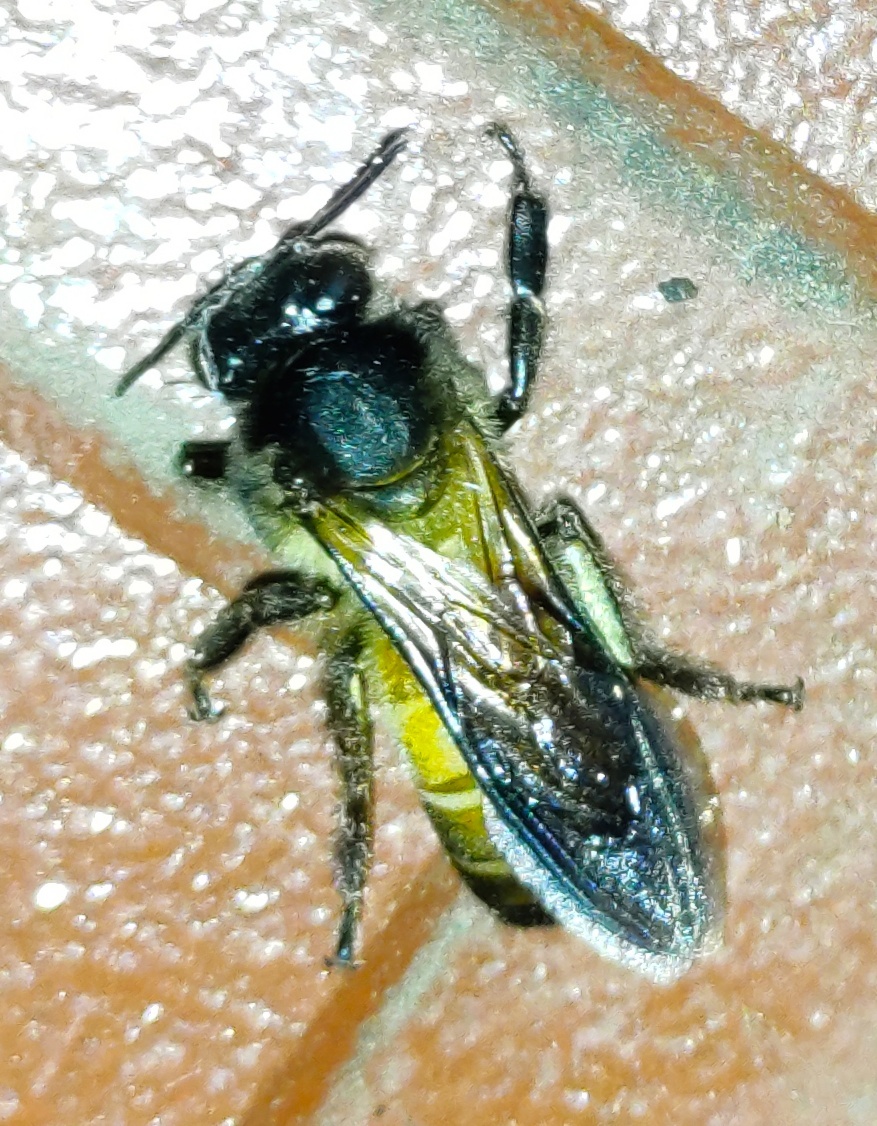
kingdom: Animalia
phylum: Arthropoda
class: Insecta
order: Hymenoptera
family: Apidae
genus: Apis
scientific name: Apis dorsata
